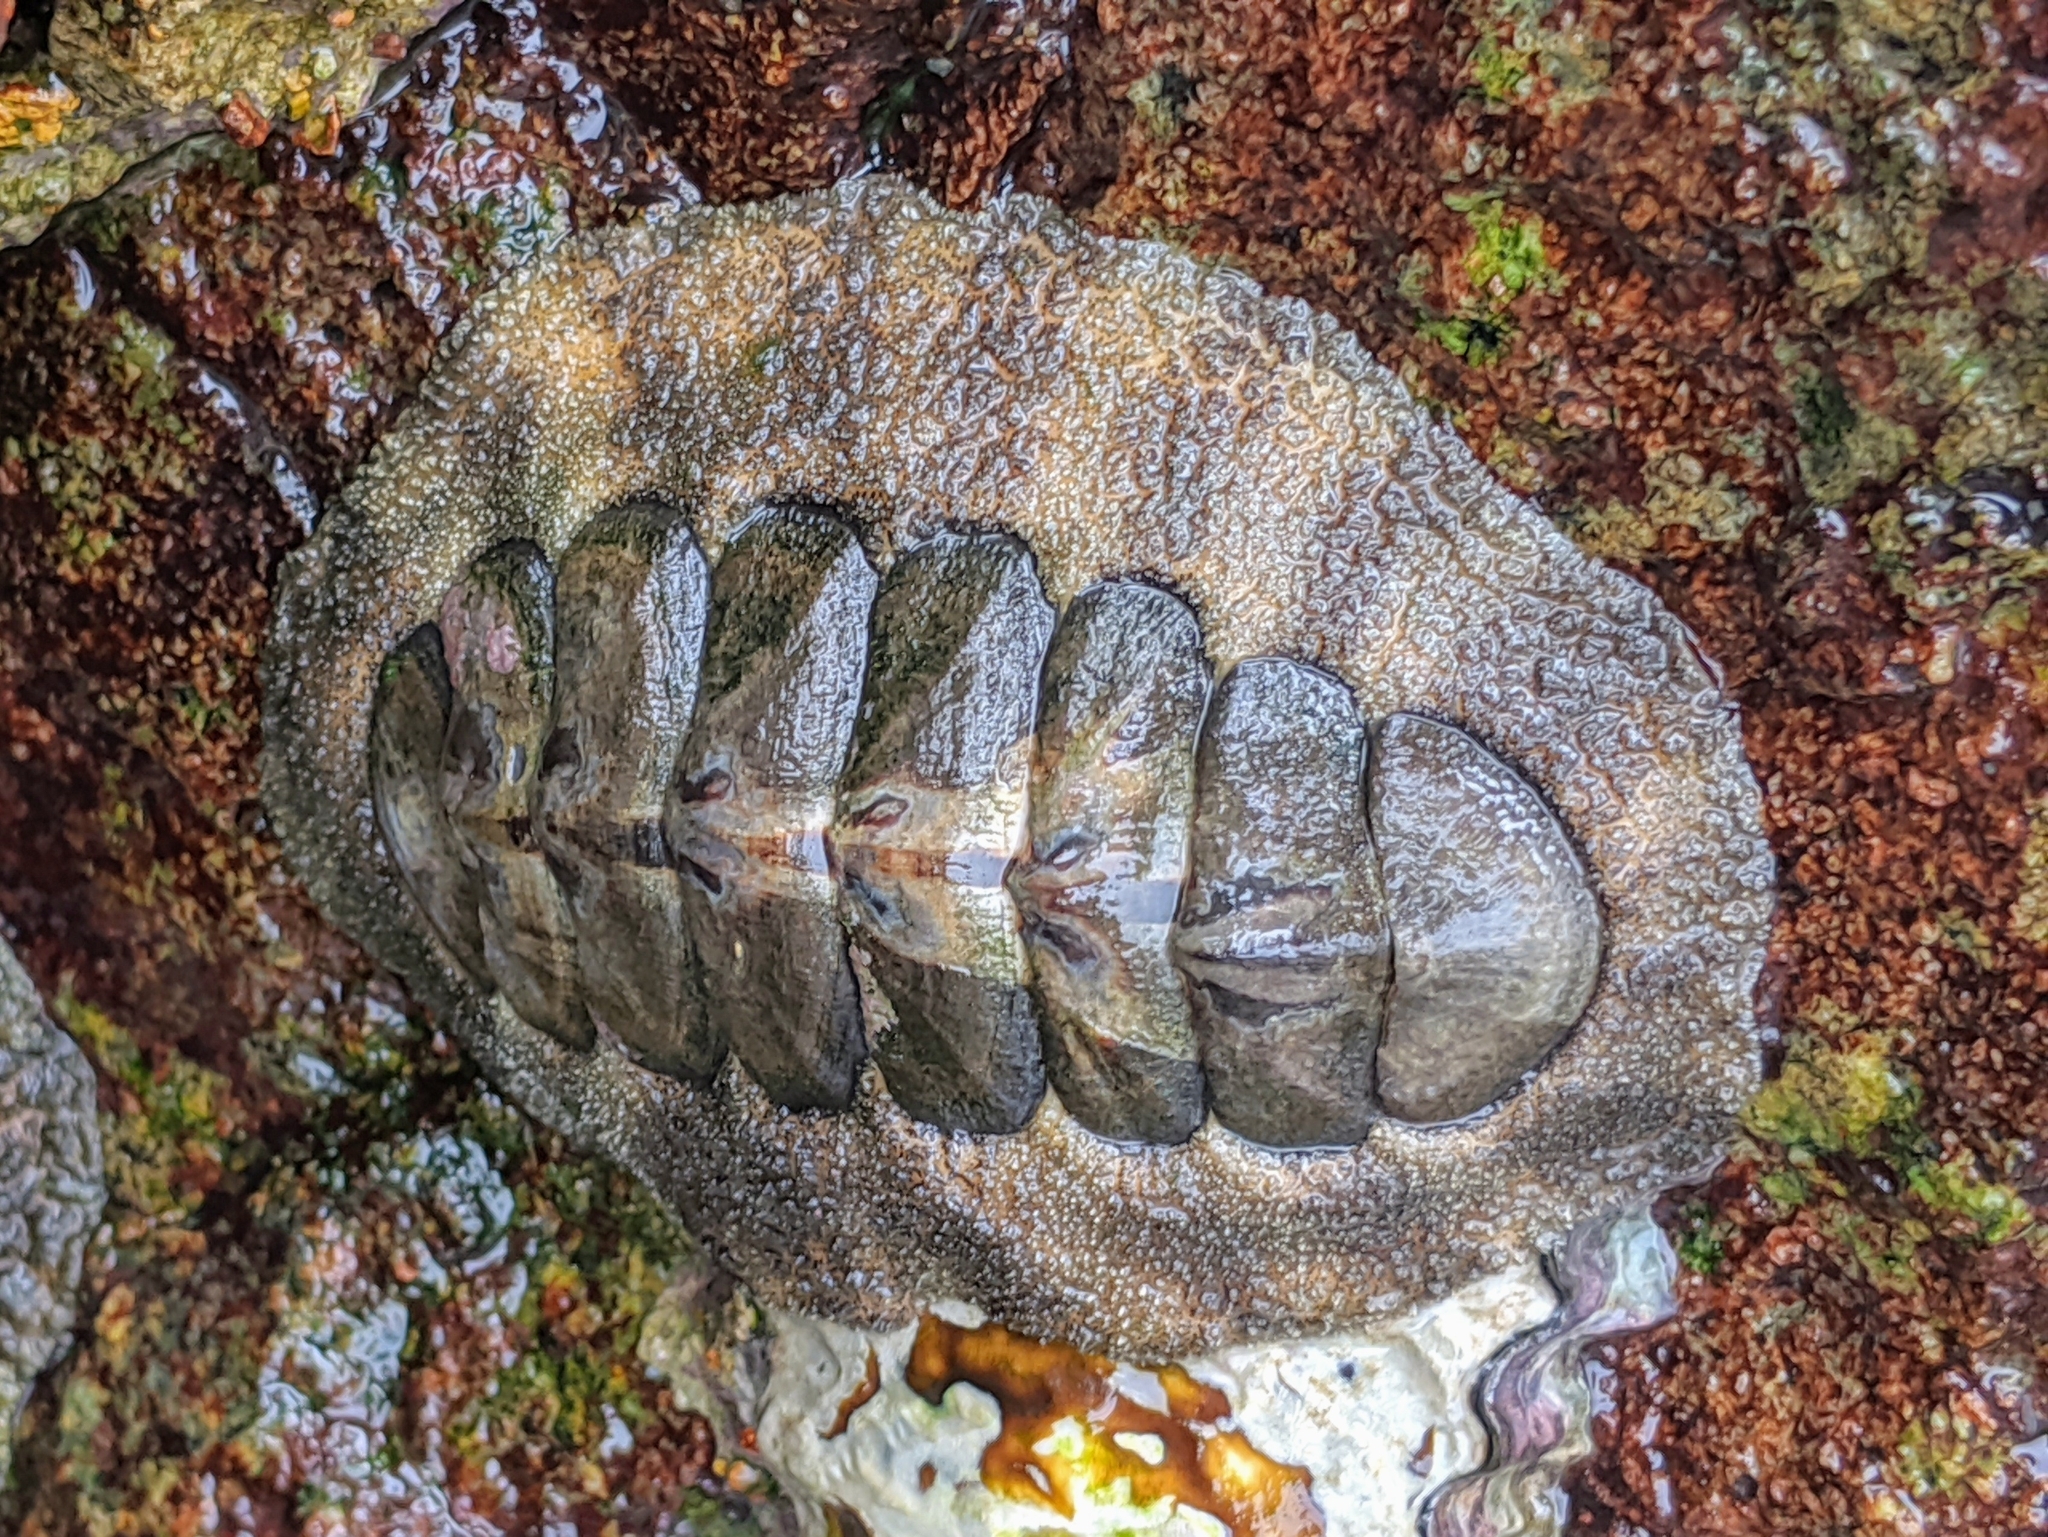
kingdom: Animalia
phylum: Mollusca
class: Polyplacophora
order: Chitonida
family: Chitonidae
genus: Acanthopleura
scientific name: Acanthopleura gemmata
